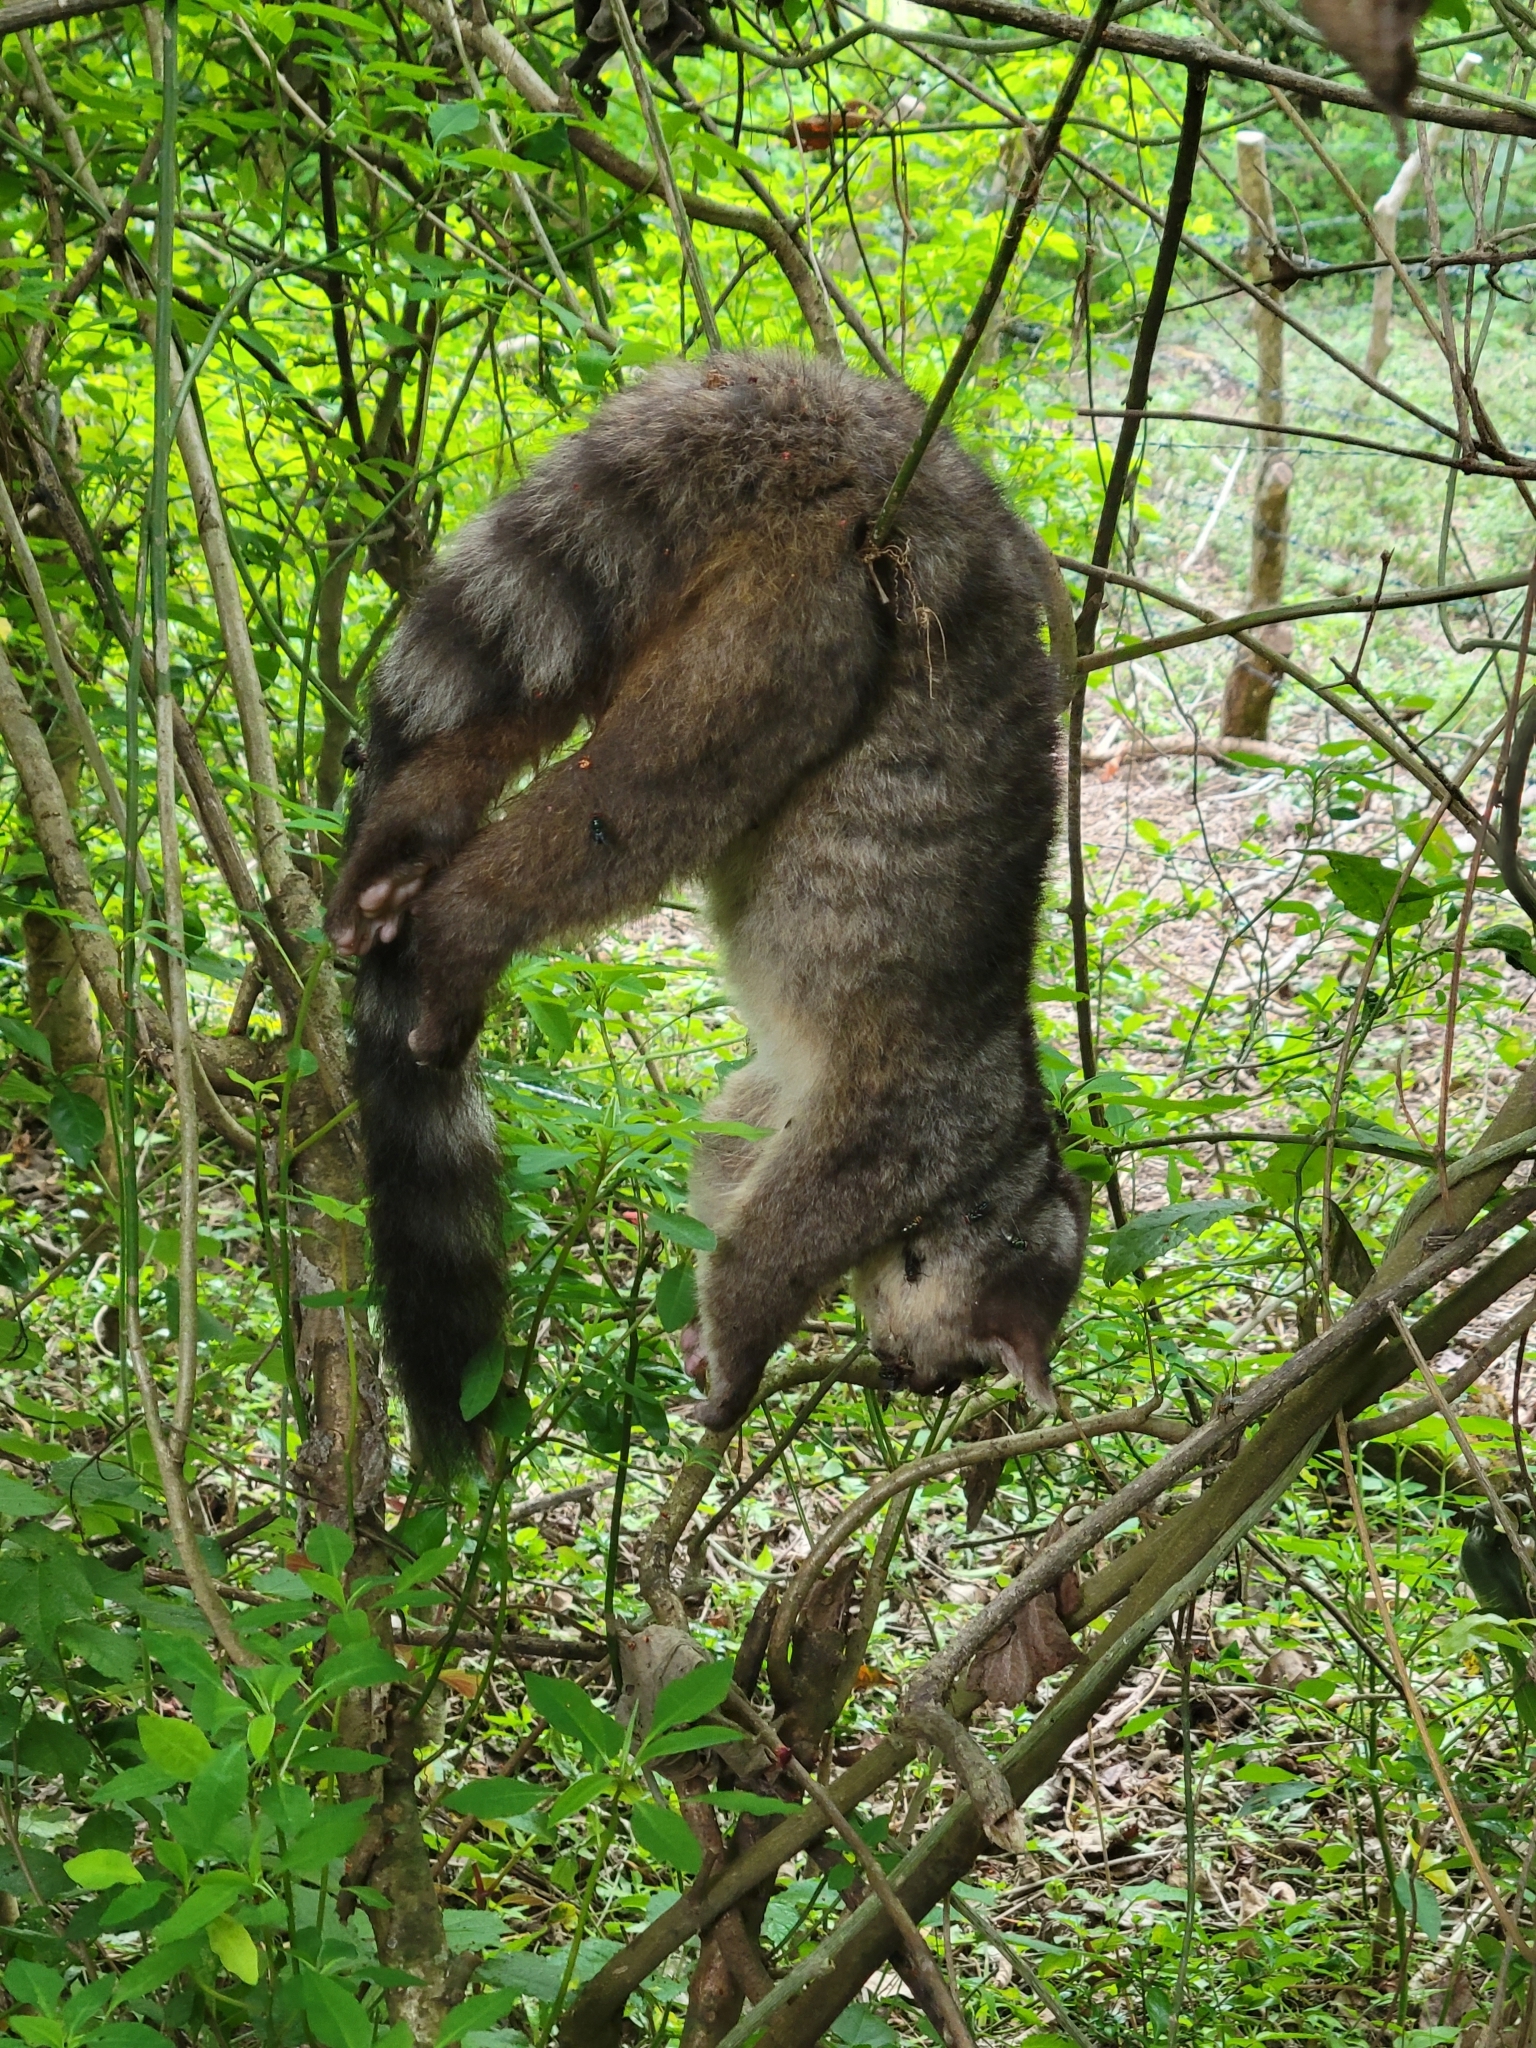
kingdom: Animalia
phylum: Chordata
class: Mammalia
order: Carnivora
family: Procyonidae
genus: Bassariscus
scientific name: Bassariscus sumichrasti
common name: Cacomistle
